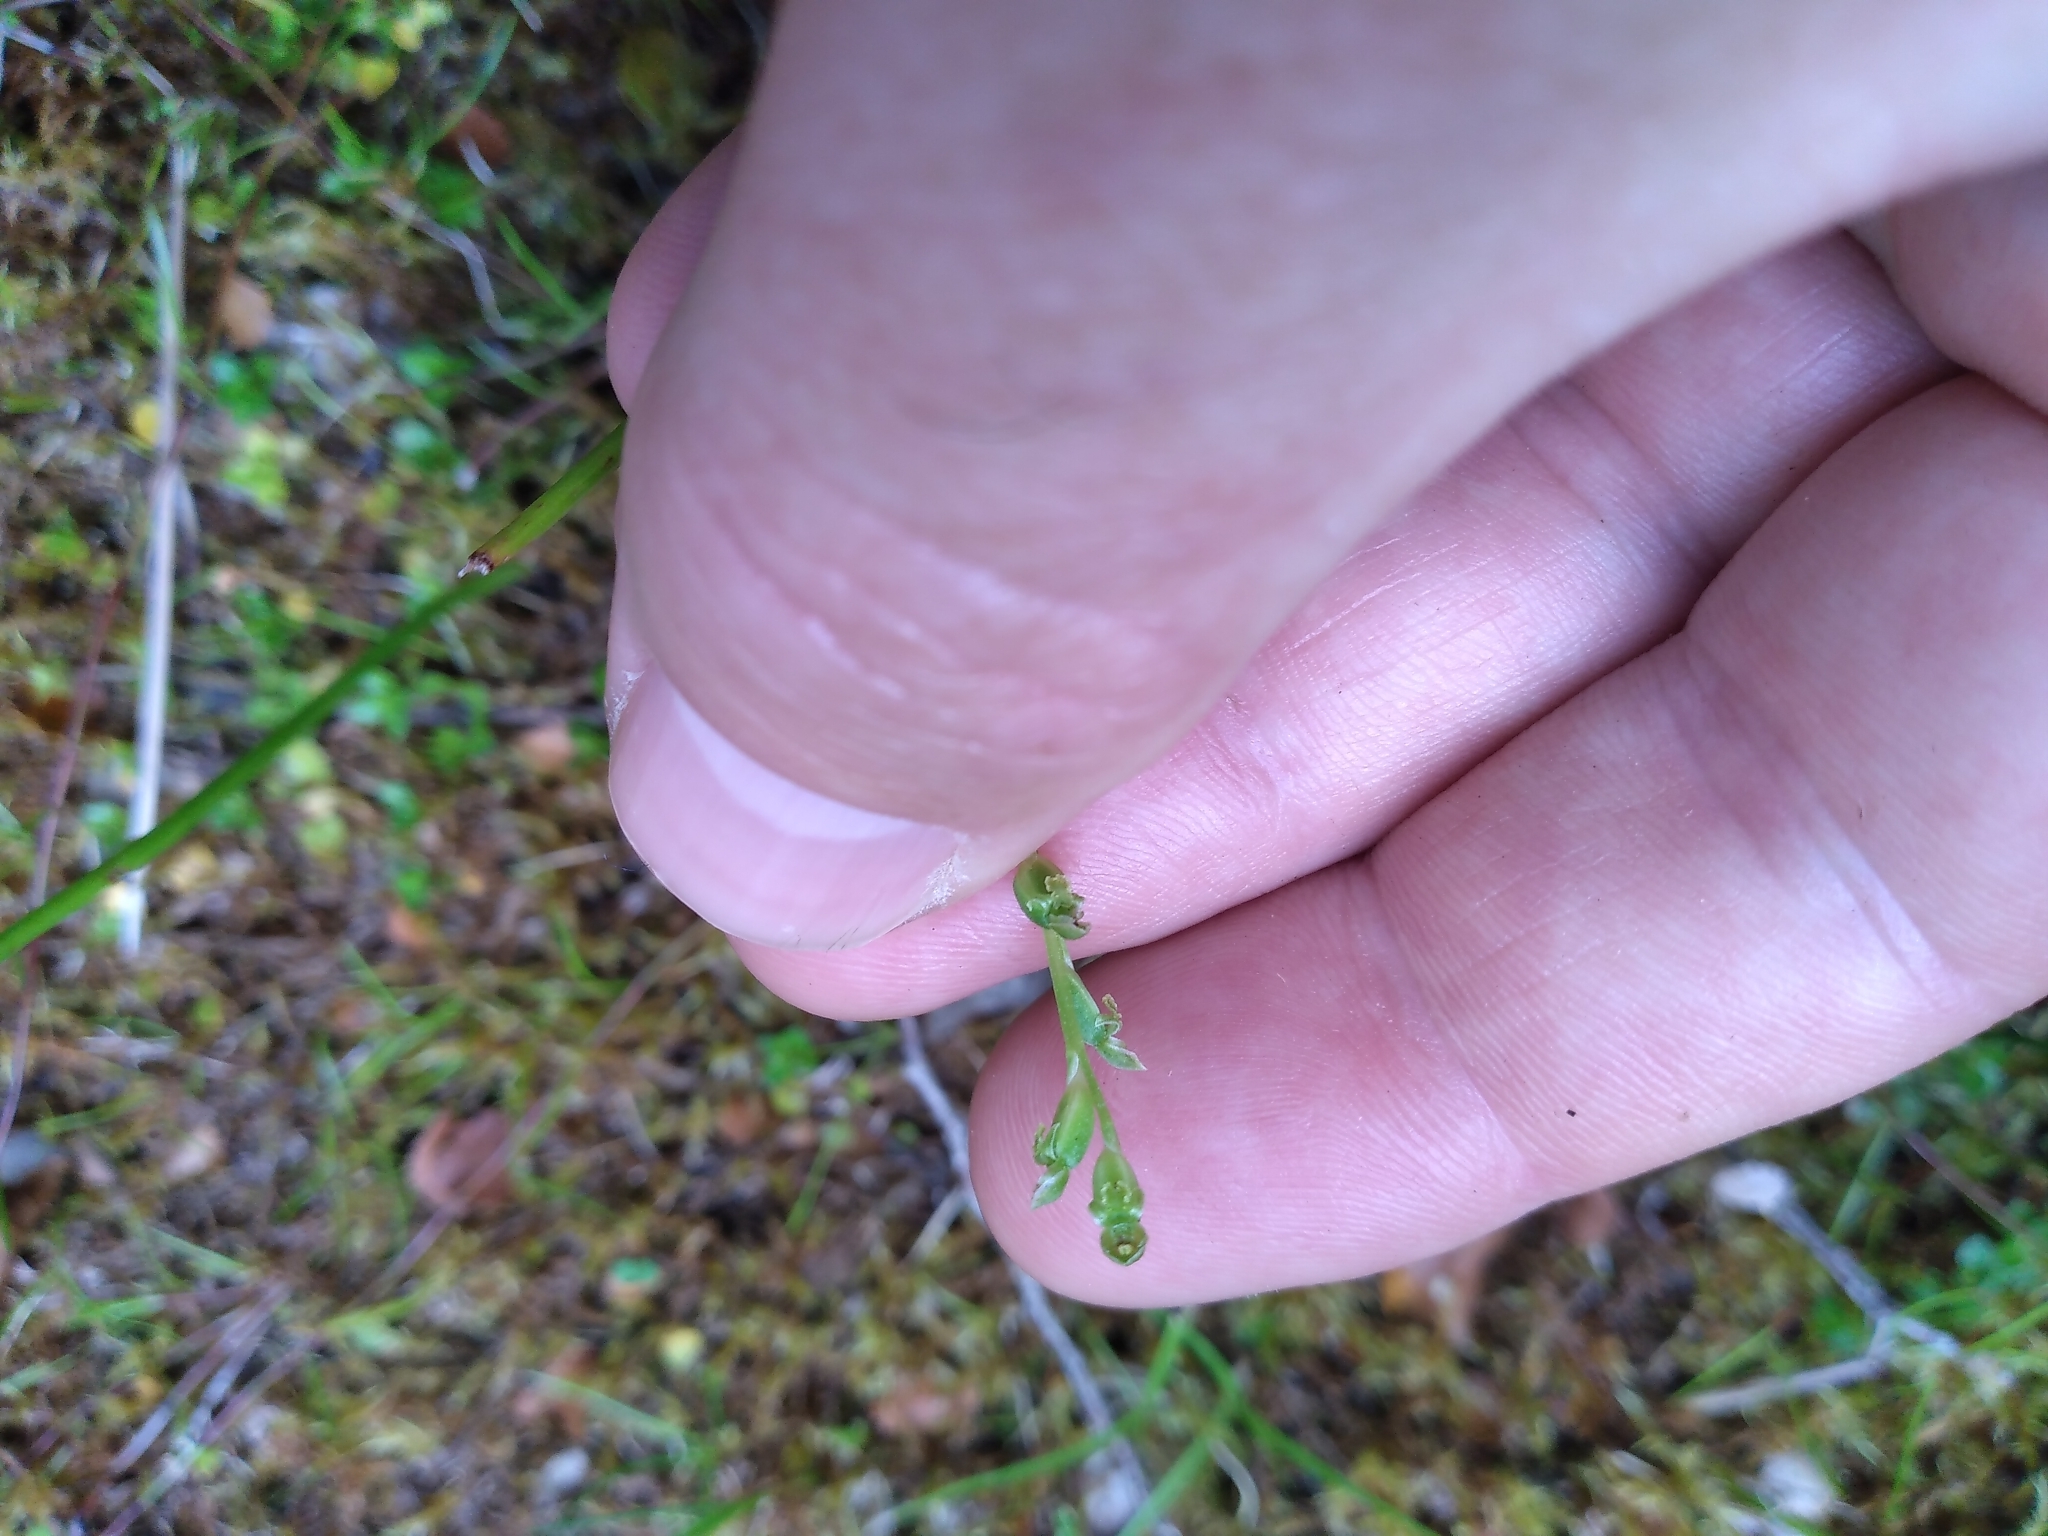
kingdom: Plantae
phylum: Tracheophyta
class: Liliopsida
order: Asparagales
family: Orchidaceae
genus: Microtis
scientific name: Microtis oligantha
